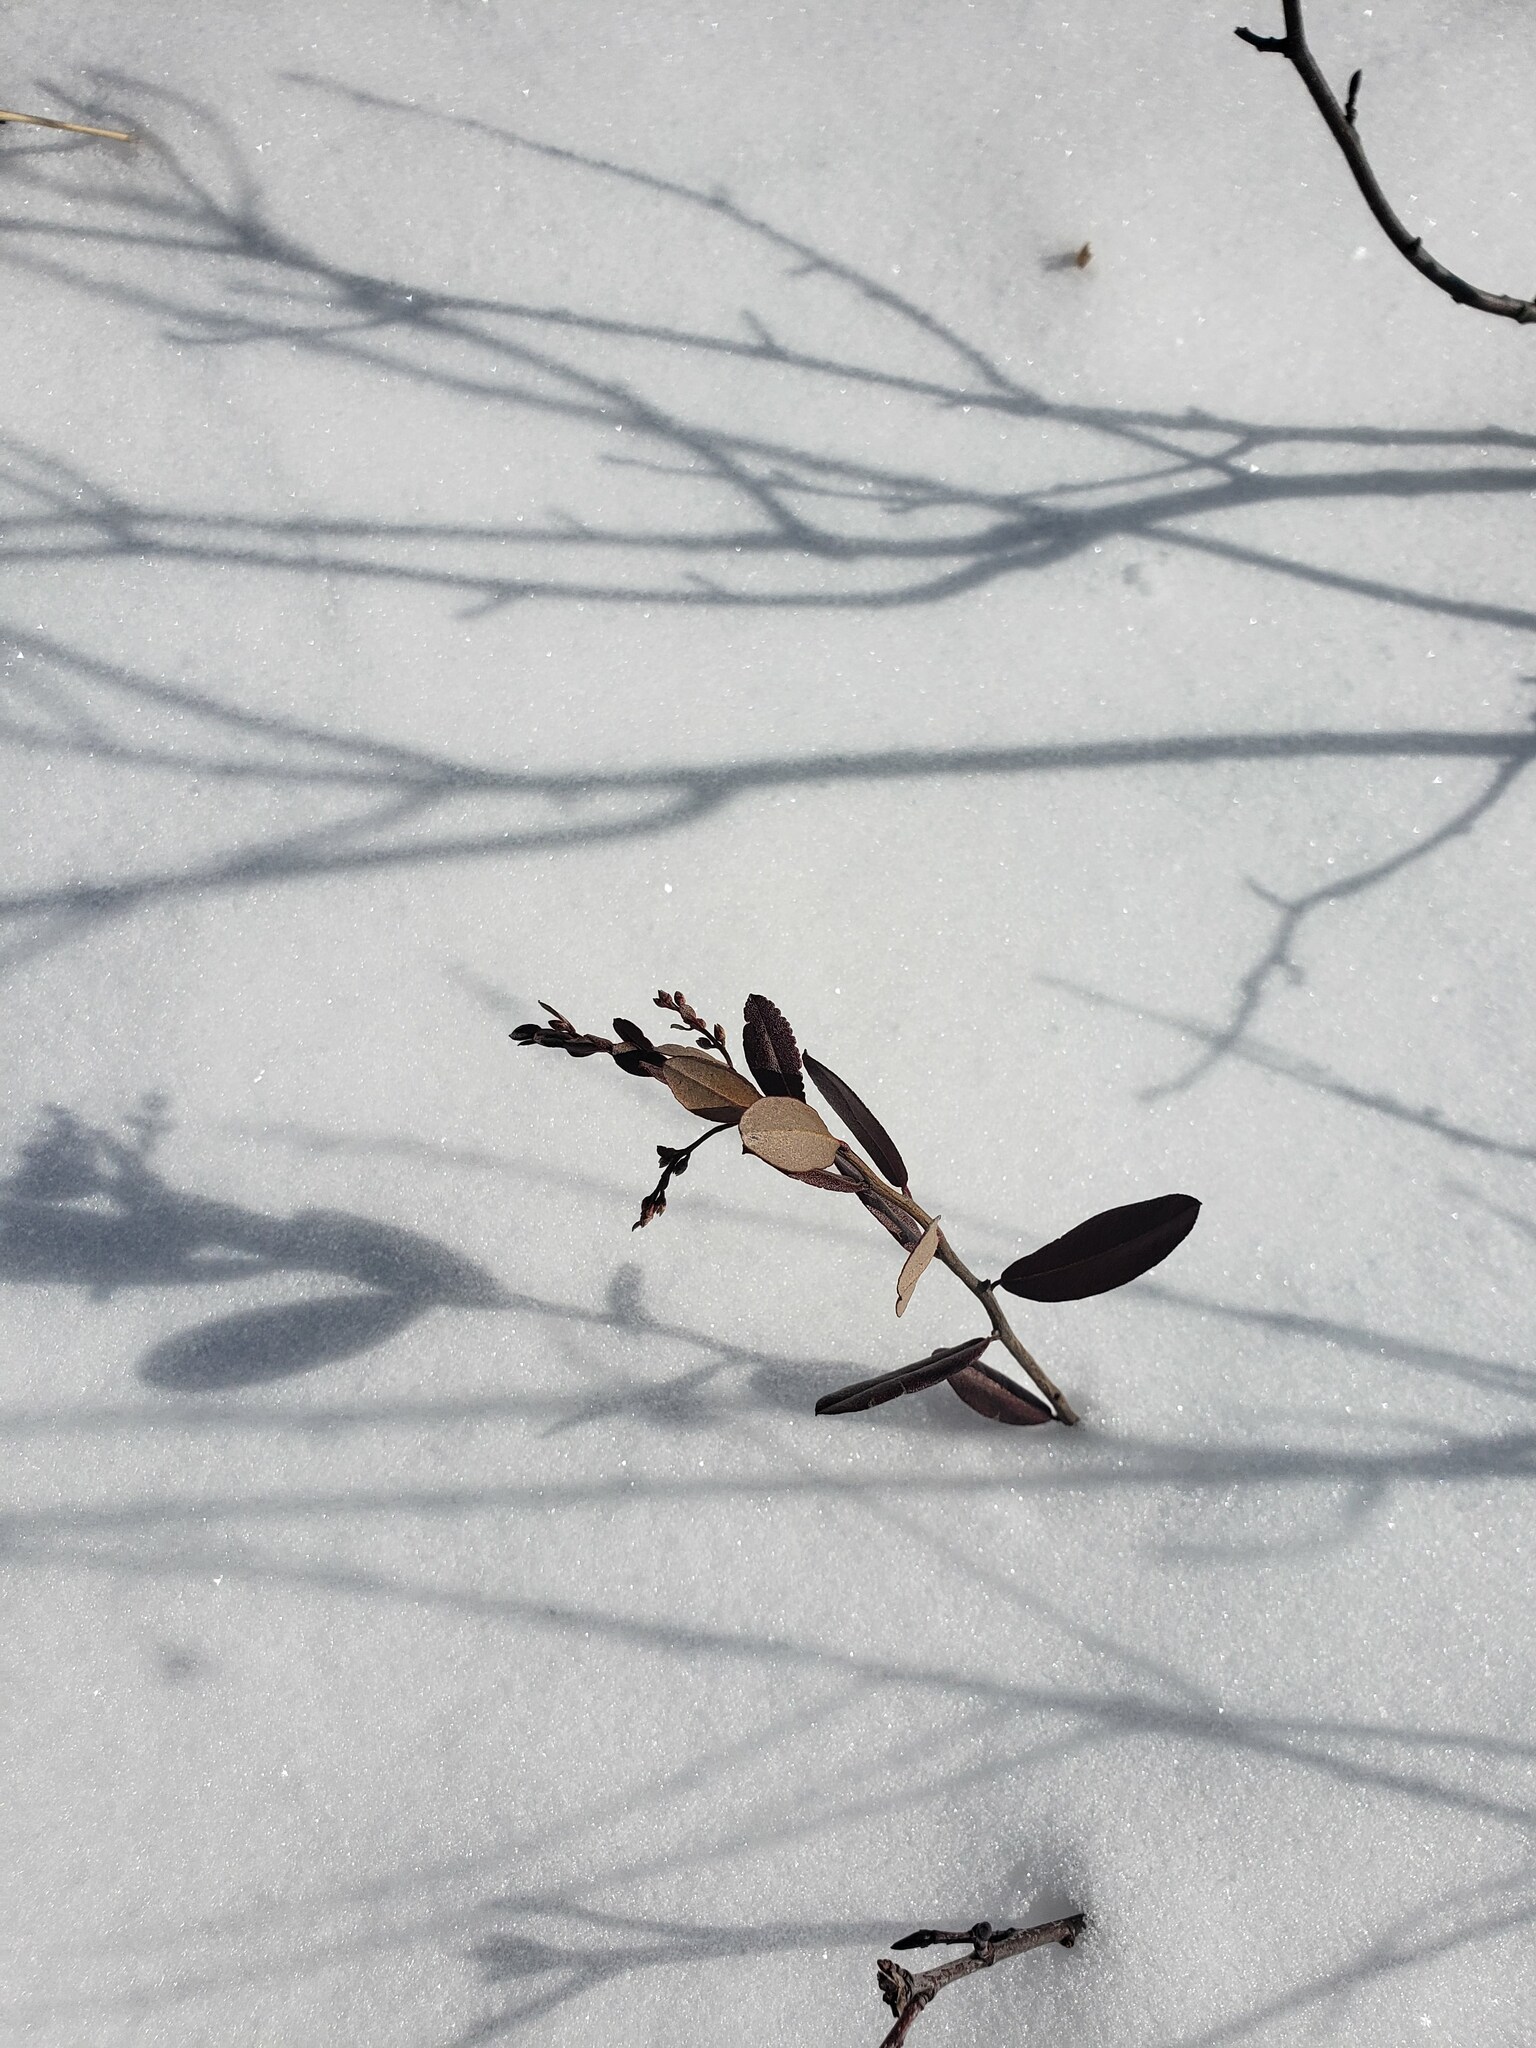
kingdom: Plantae
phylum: Tracheophyta
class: Magnoliopsida
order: Ericales
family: Ericaceae
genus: Chamaedaphne
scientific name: Chamaedaphne calyculata
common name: Leatherleaf
